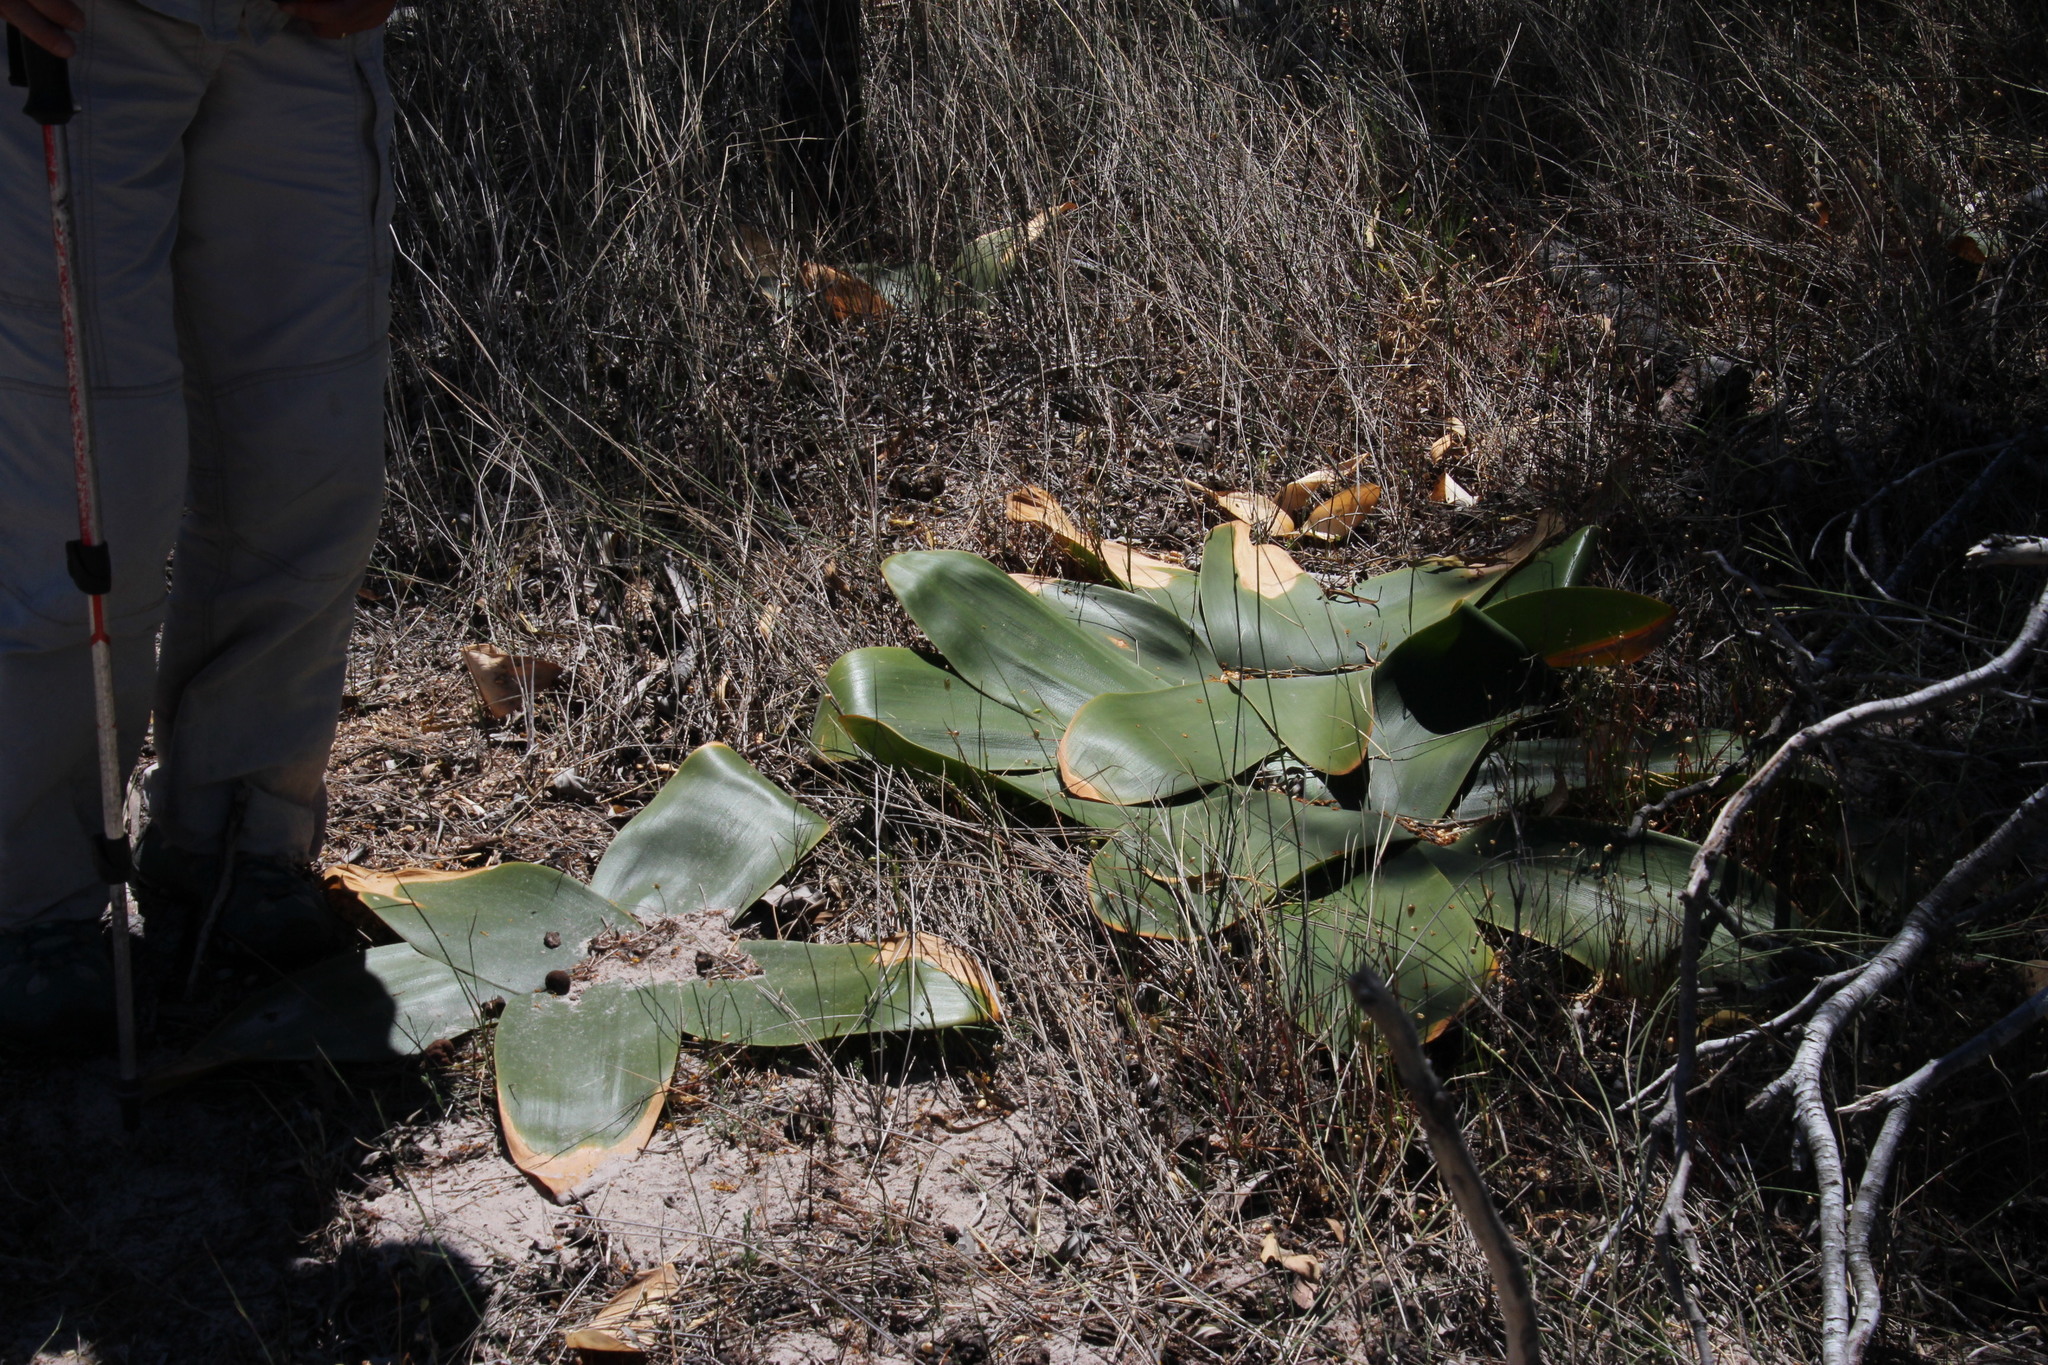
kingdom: Plantae
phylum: Tracheophyta
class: Liliopsida
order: Asparagales
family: Amaryllidaceae
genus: Brunsvigia
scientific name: Brunsvigia orientalis
